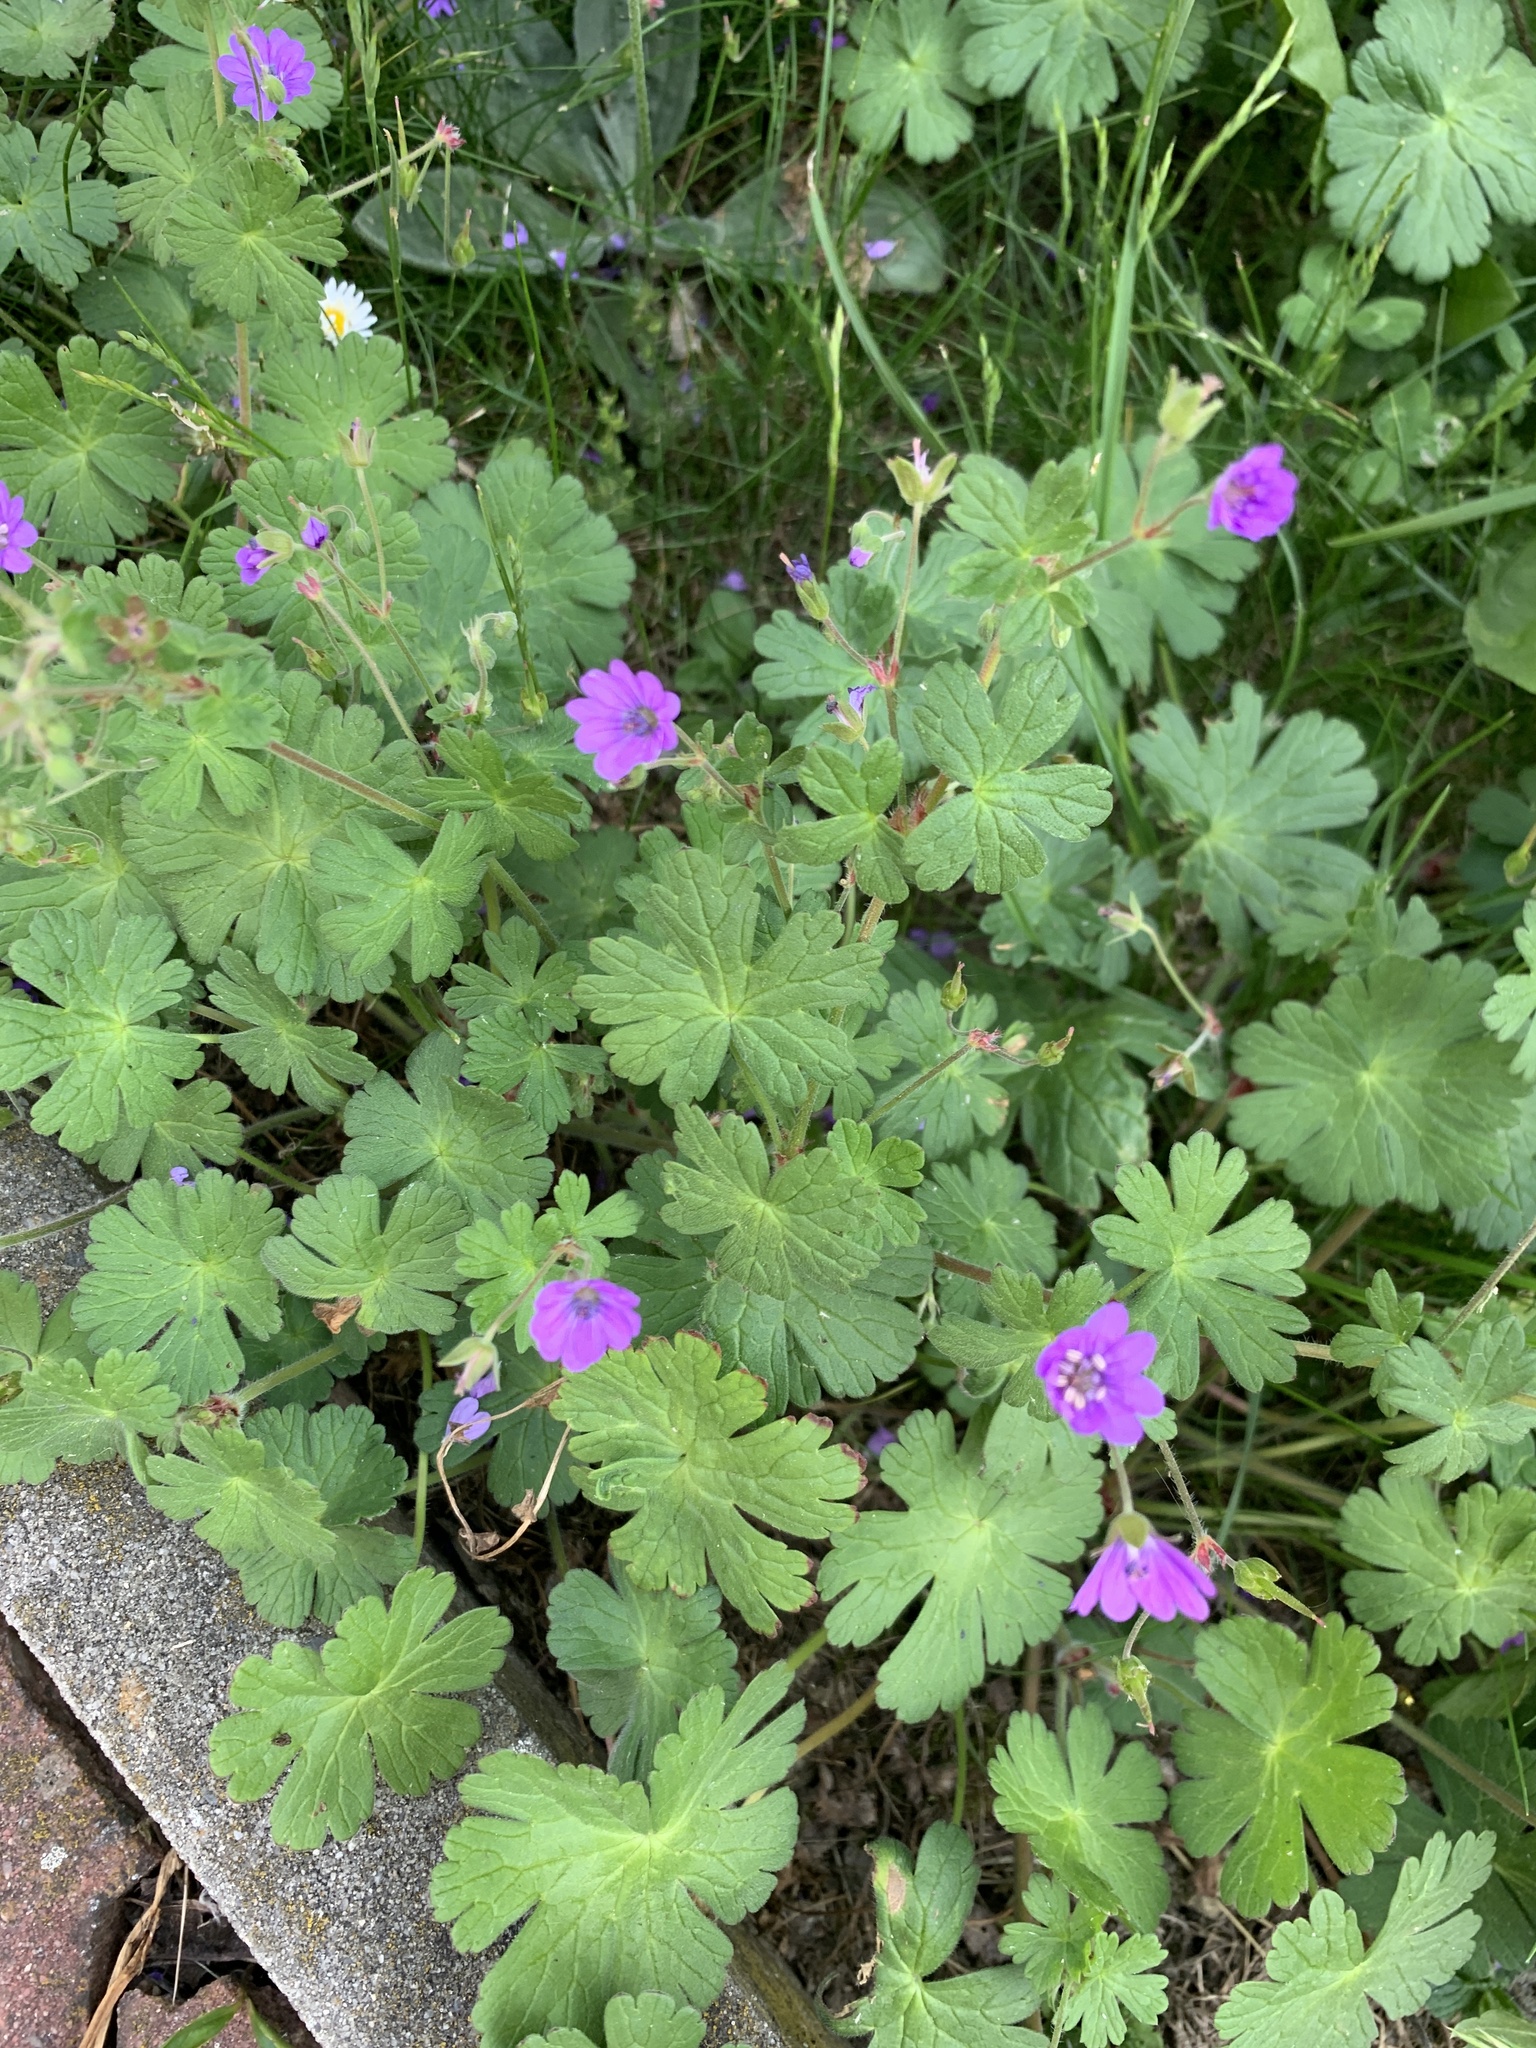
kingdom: Plantae
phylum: Tracheophyta
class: Magnoliopsida
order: Geraniales
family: Geraniaceae
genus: Geranium
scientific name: Geranium pyrenaicum
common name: Hedgerow crane's-bill
